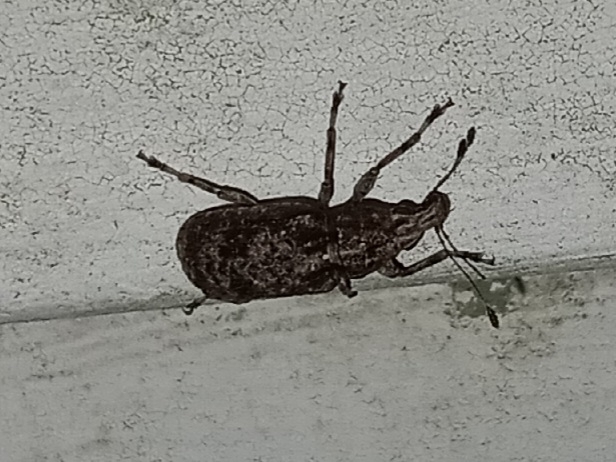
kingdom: Animalia
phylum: Arthropoda
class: Insecta
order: Coleoptera
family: Anthribidae
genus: Meconemus
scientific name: Meconemus infuscatus
